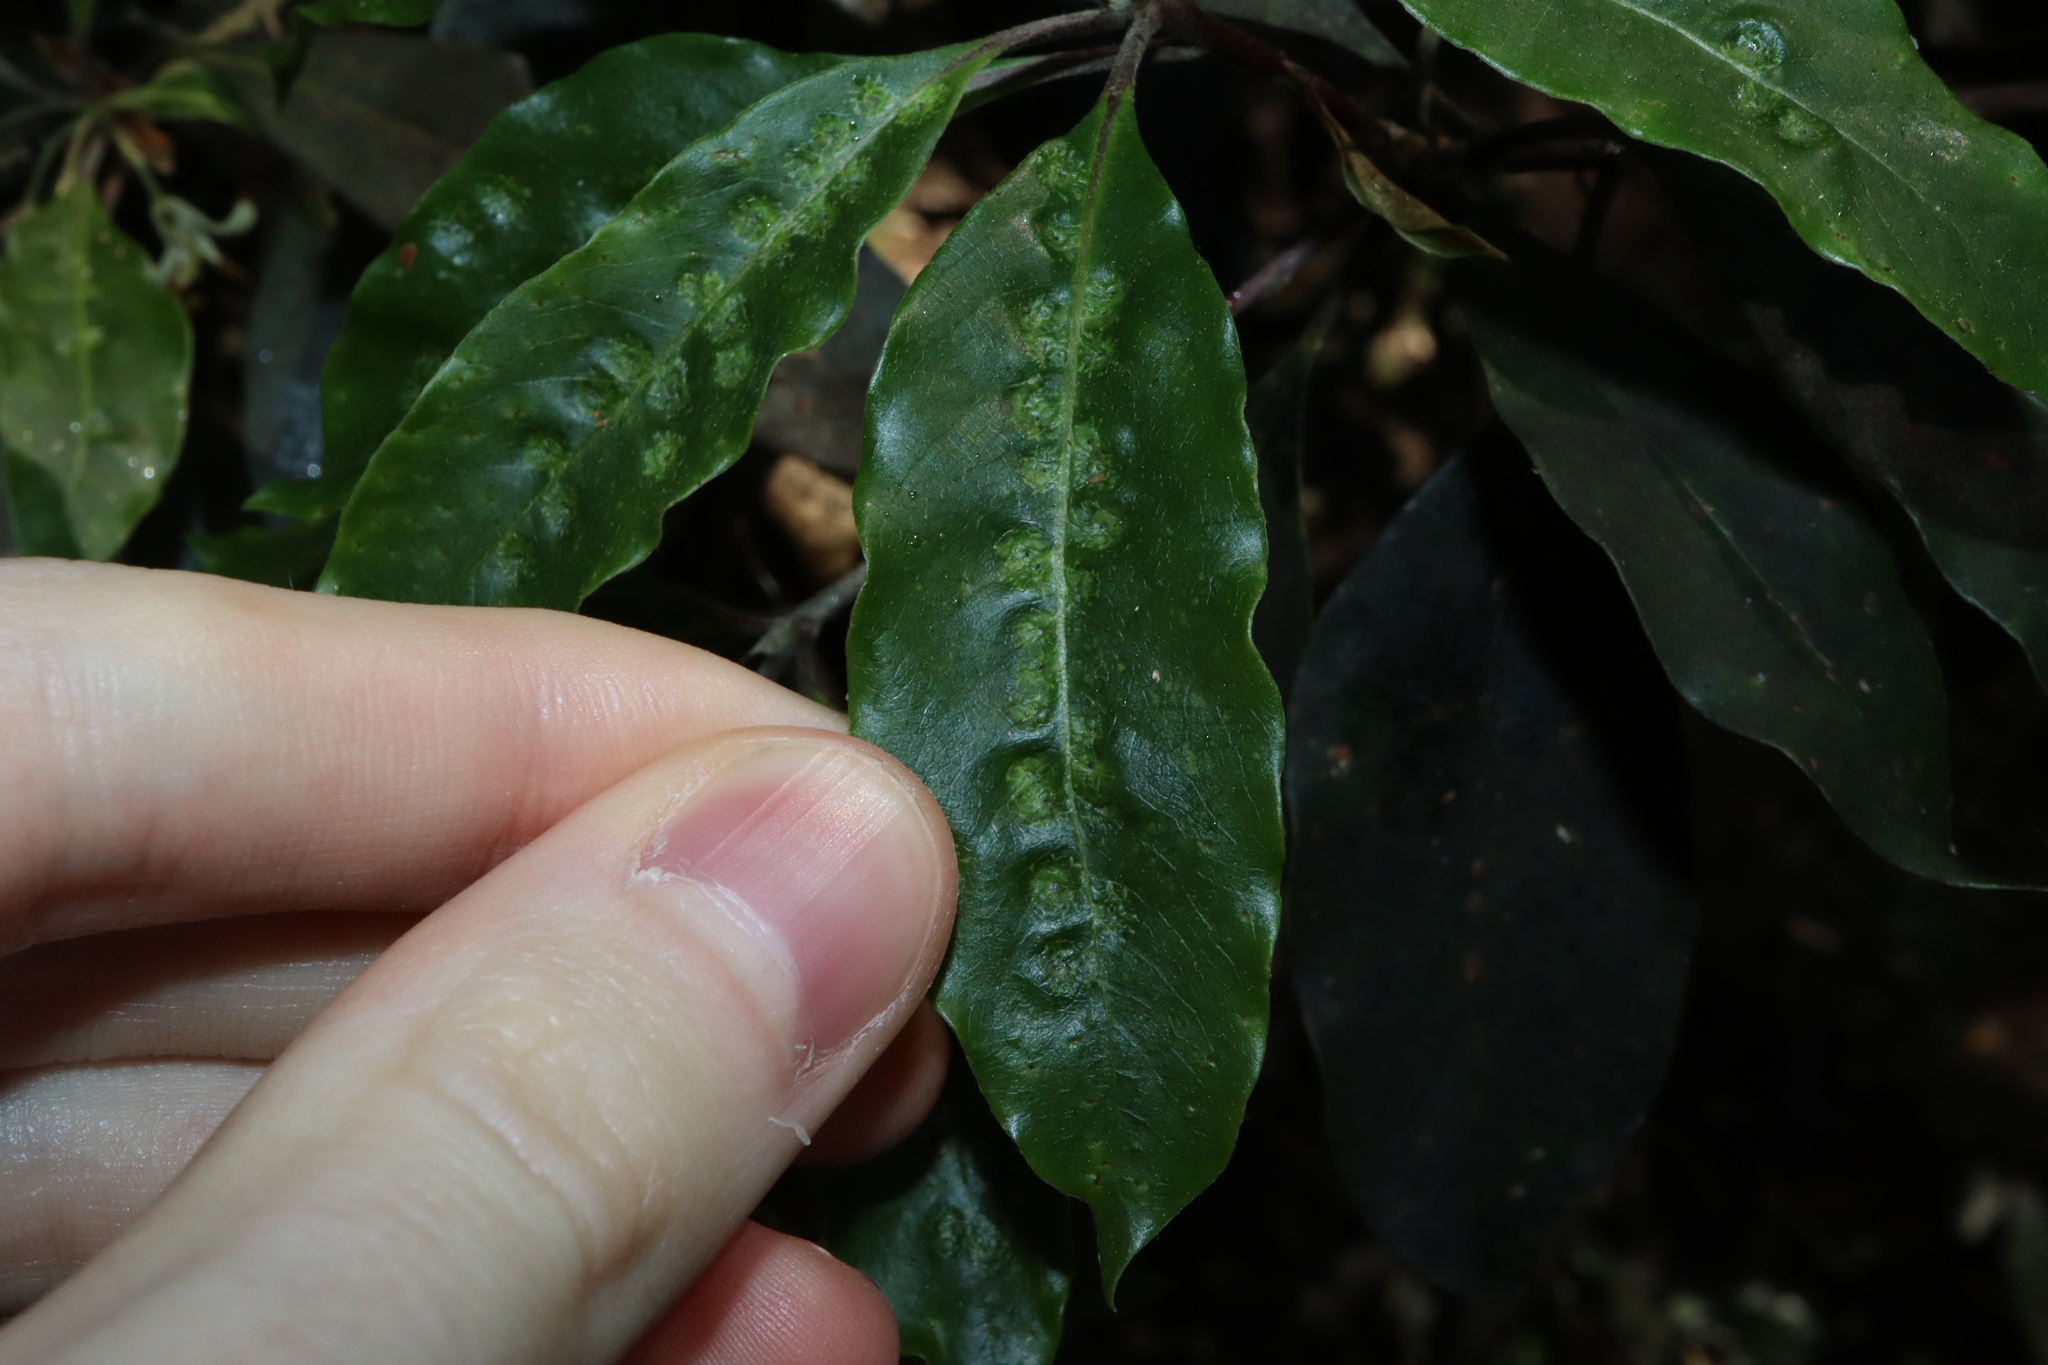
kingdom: Animalia
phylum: Arthropoda
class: Insecta
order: Diptera
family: Agromyzidae
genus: Phytoliriomyza
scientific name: Phytoliriomyza pittosporophylli
